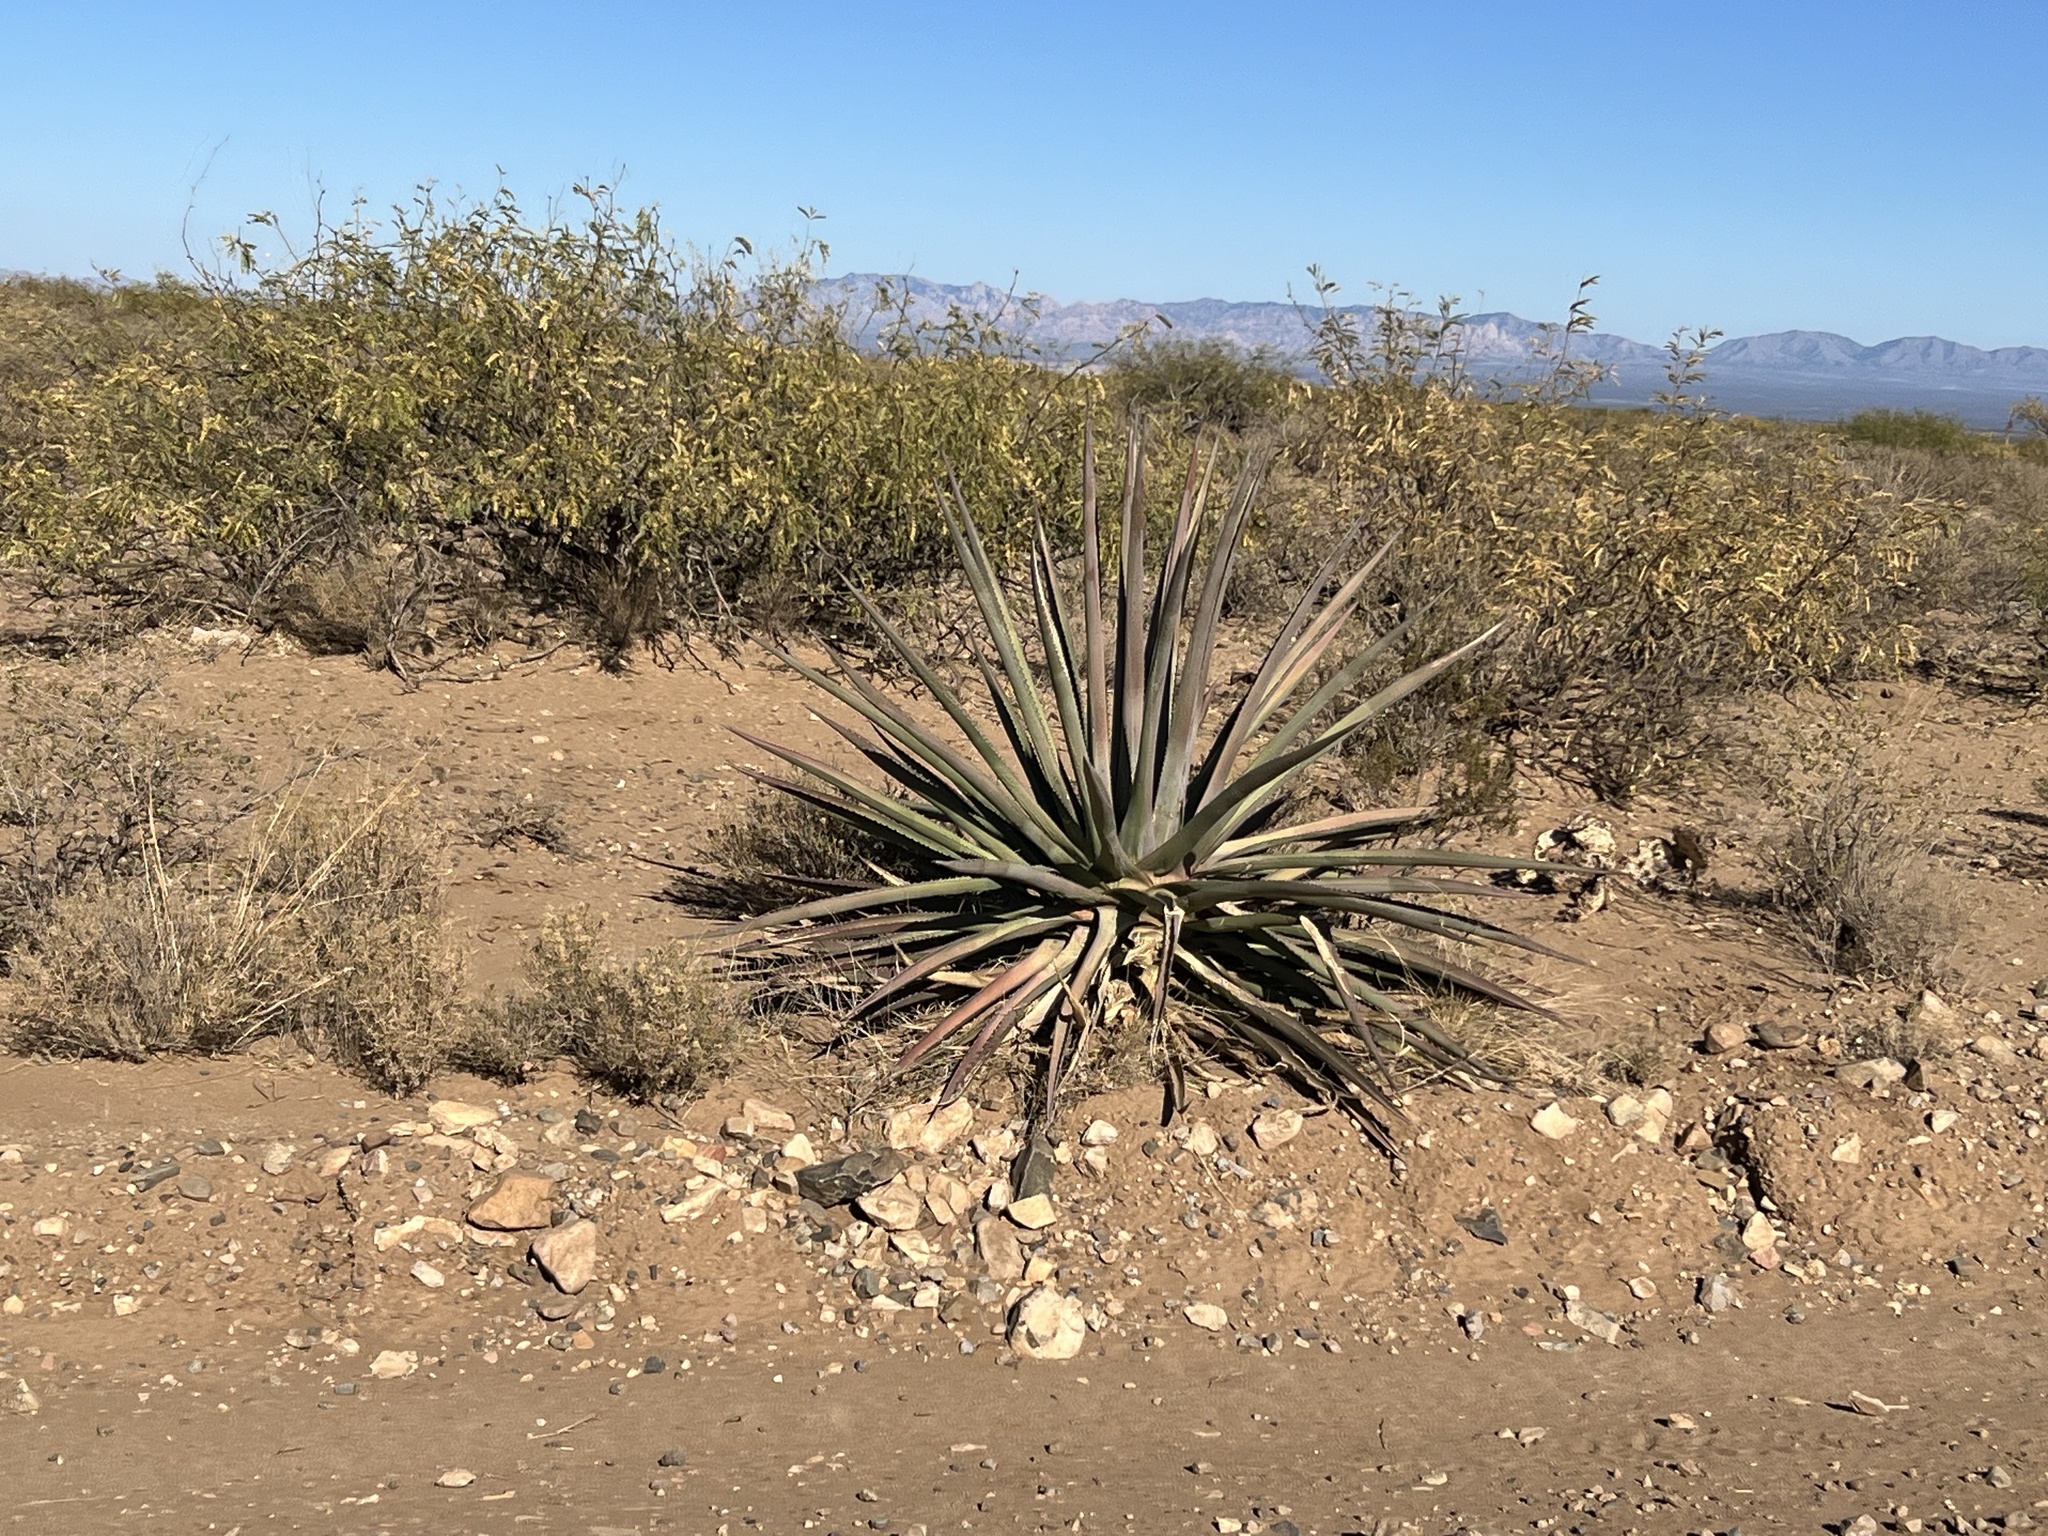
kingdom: Plantae
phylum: Tracheophyta
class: Liliopsida
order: Asparagales
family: Asparagaceae
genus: Agave
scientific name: Agave palmeri
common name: Palmer agave
